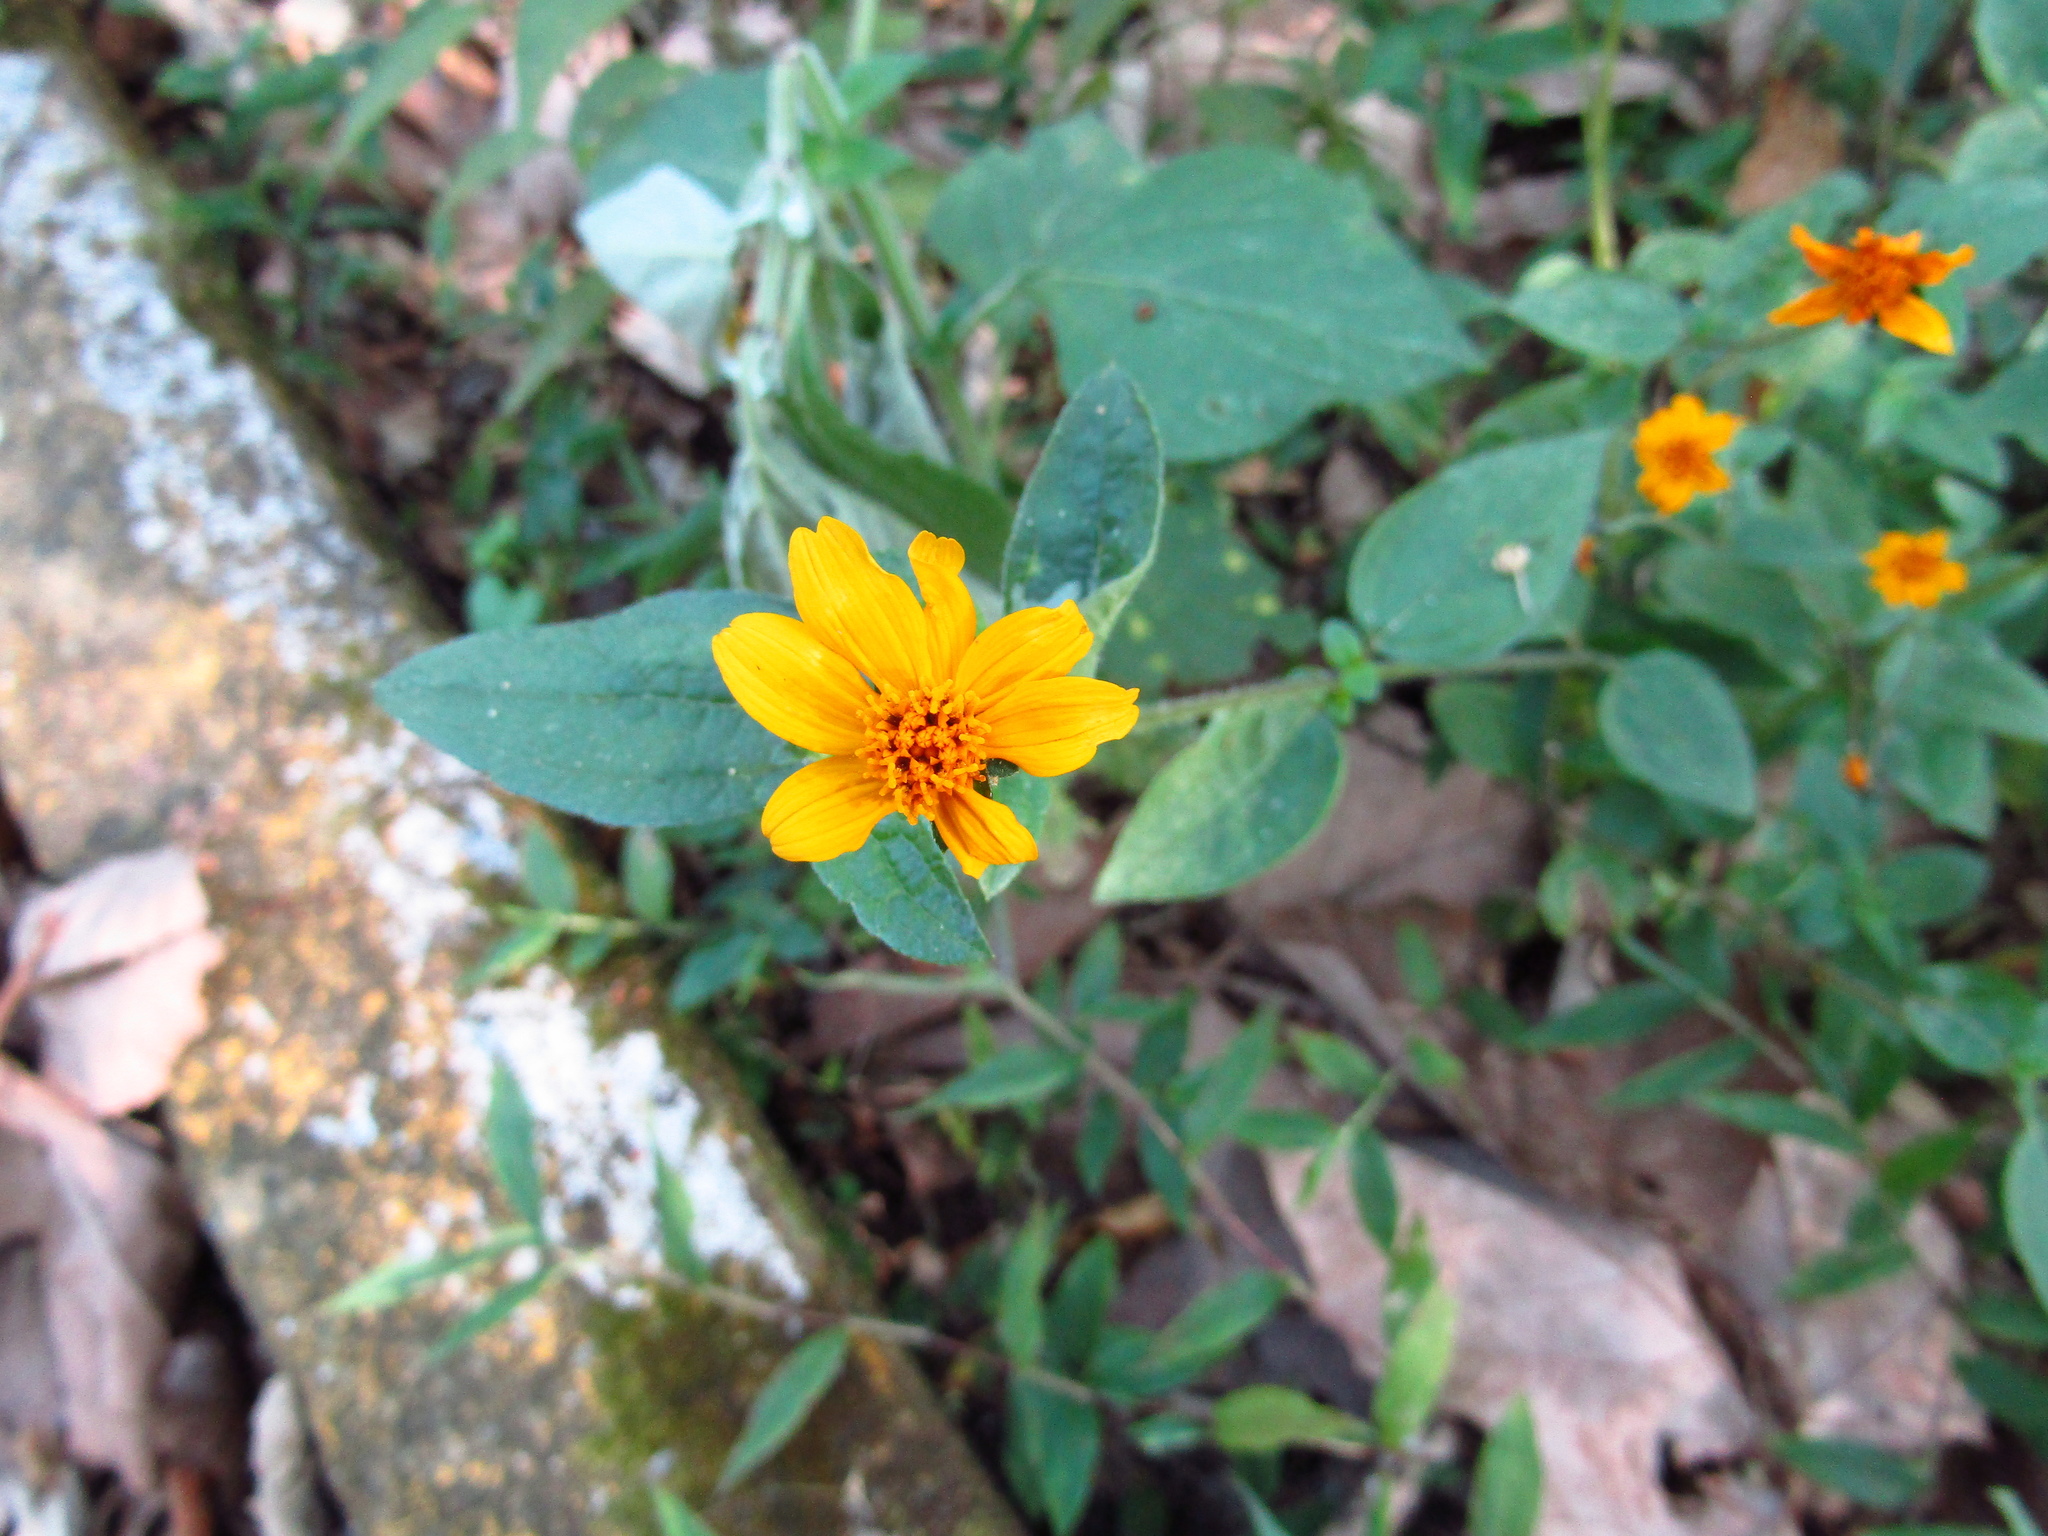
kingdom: Plantae
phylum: Tracheophyta
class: Magnoliopsida
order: Asterales
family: Asteraceae
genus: Sphagneticola
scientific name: Sphagneticola trilobata
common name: Bay biscayne creeping-oxeye
